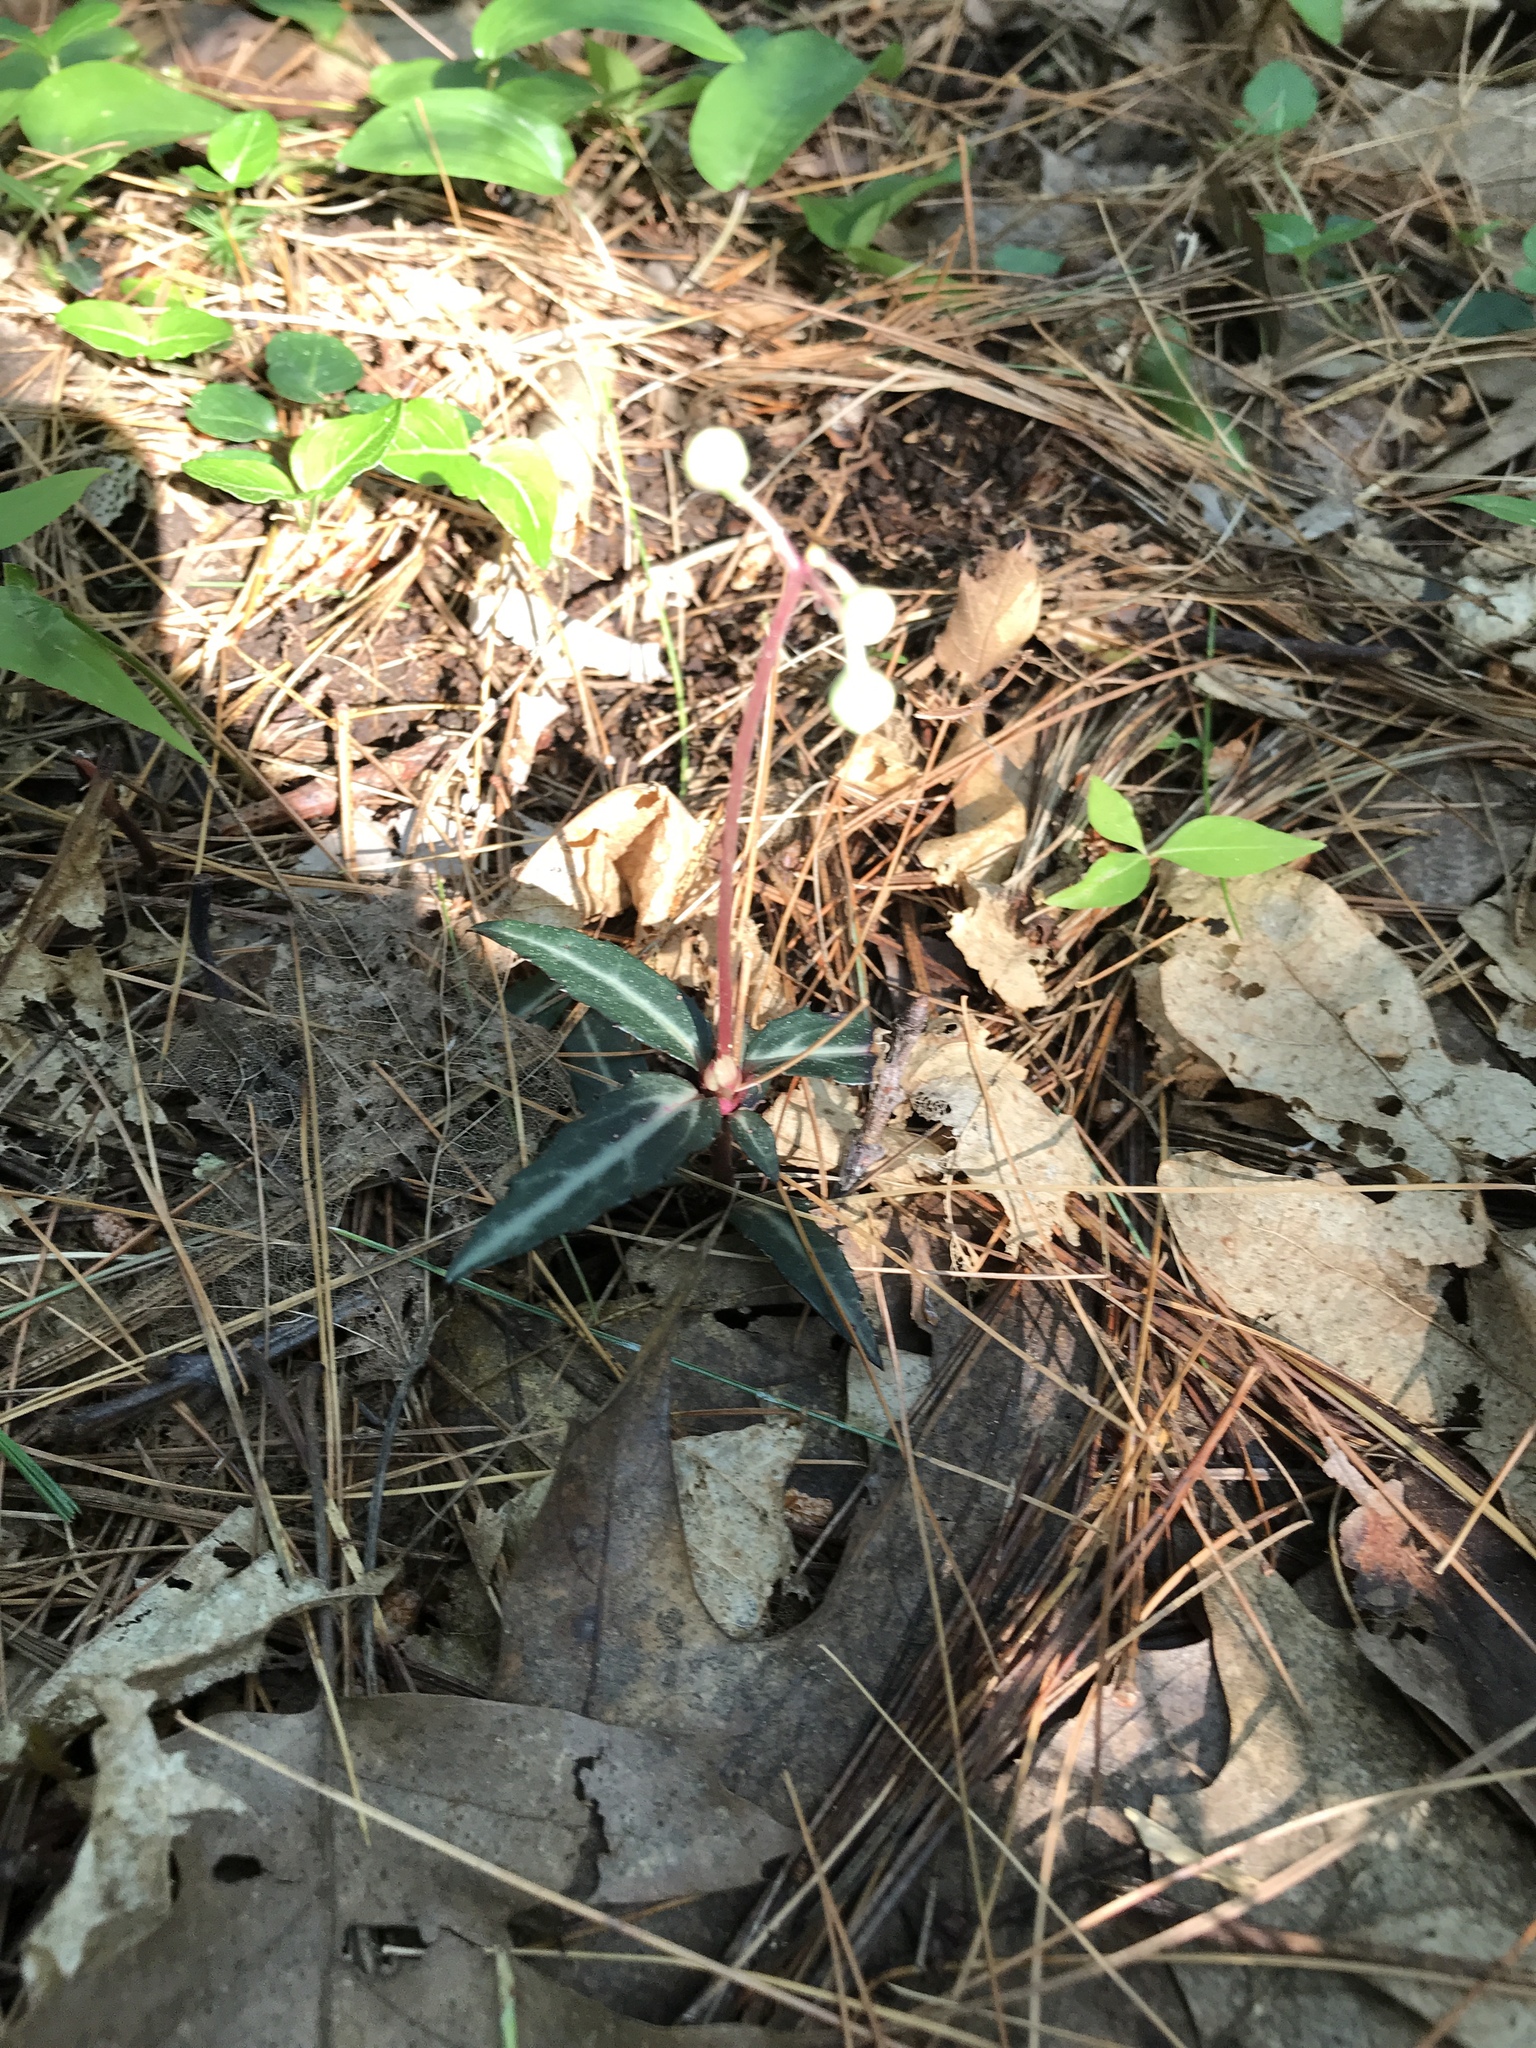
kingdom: Plantae
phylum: Tracheophyta
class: Magnoliopsida
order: Ericales
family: Ericaceae
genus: Chimaphila
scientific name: Chimaphila maculata
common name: Spotted pipsissewa
